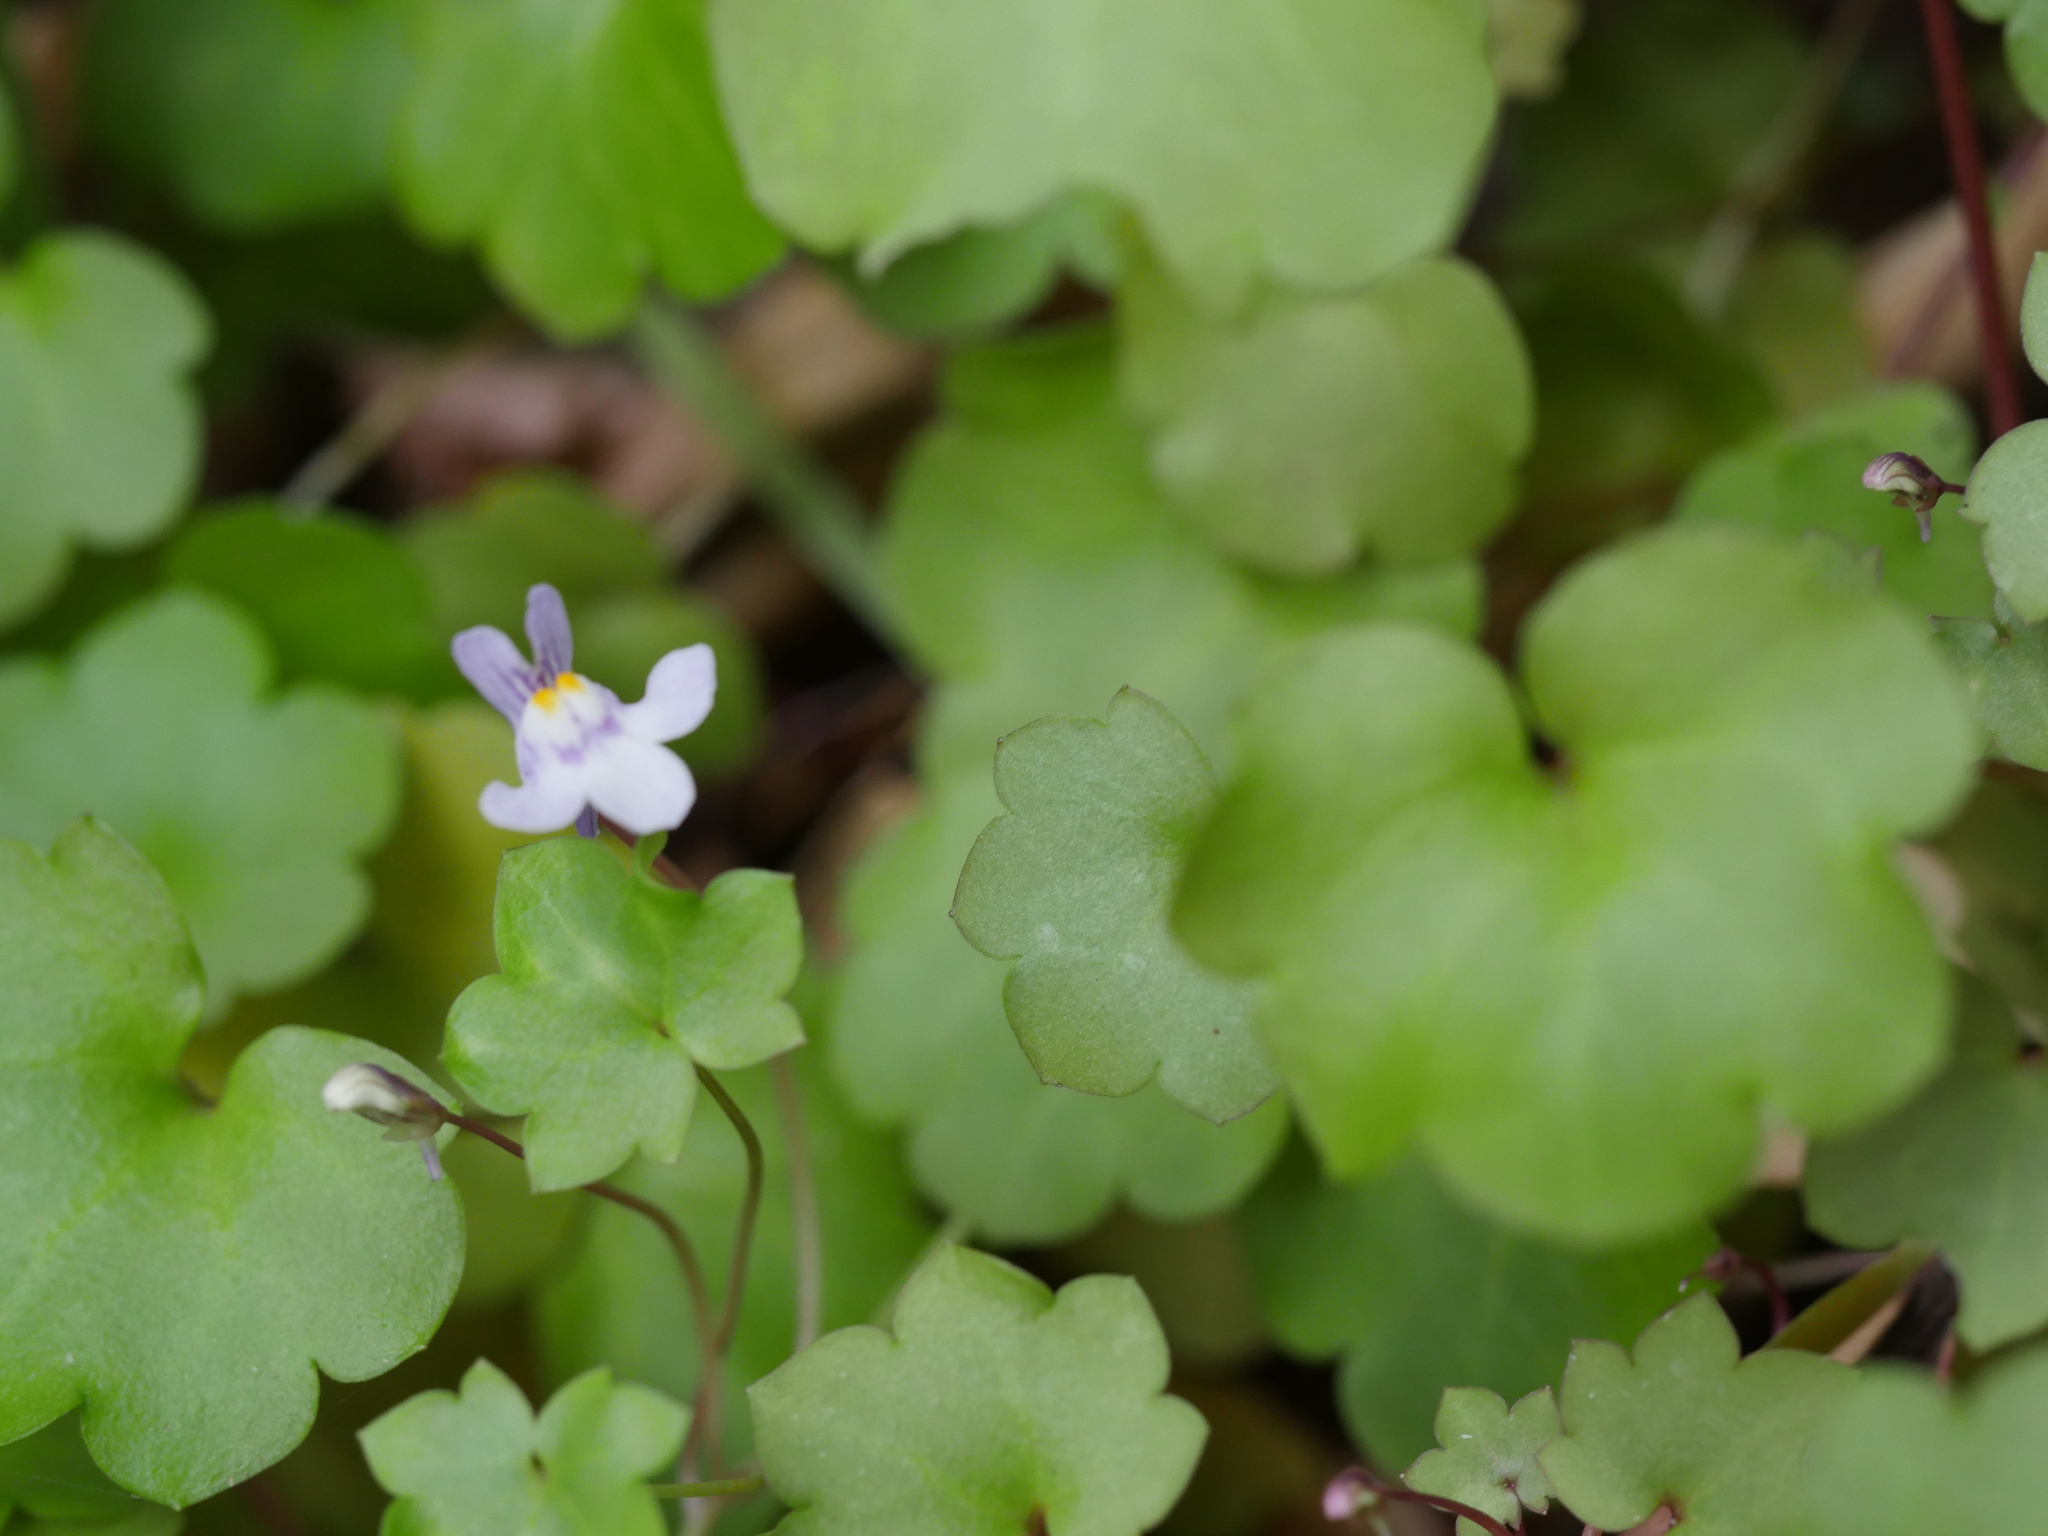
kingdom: Plantae
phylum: Tracheophyta
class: Magnoliopsida
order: Lamiales
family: Plantaginaceae
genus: Cymbalaria
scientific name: Cymbalaria muralis
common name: Ivy-leaved toadflax
